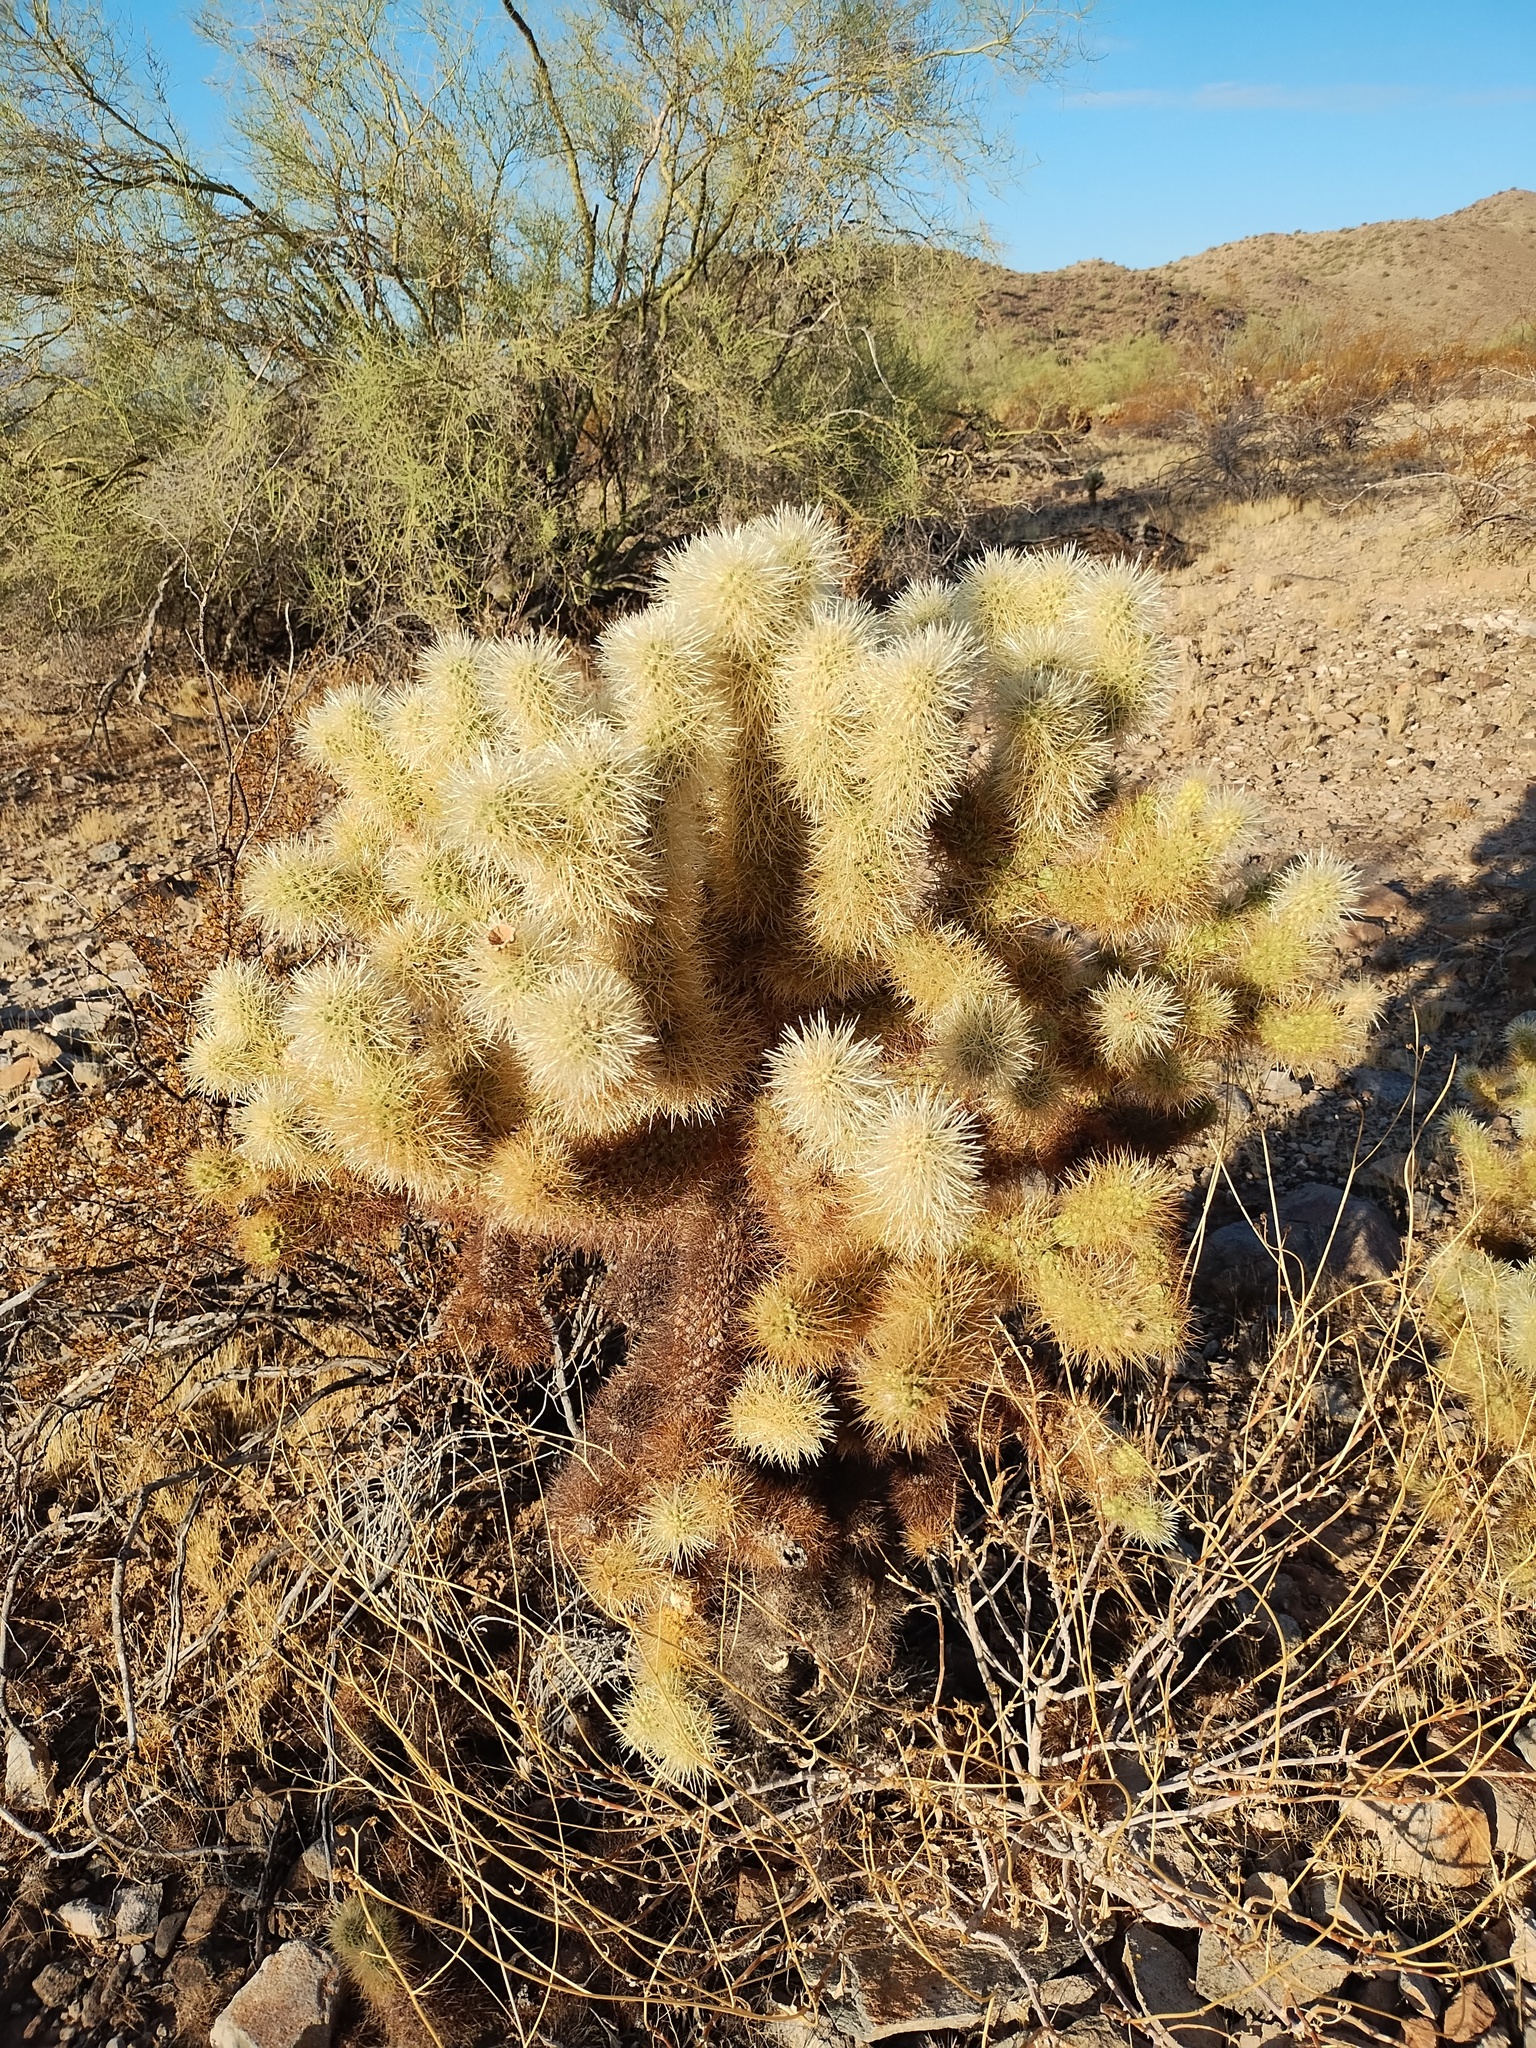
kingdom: Plantae
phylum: Tracheophyta
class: Magnoliopsida
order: Caryophyllales
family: Cactaceae
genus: Cylindropuntia
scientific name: Cylindropuntia fosbergii
